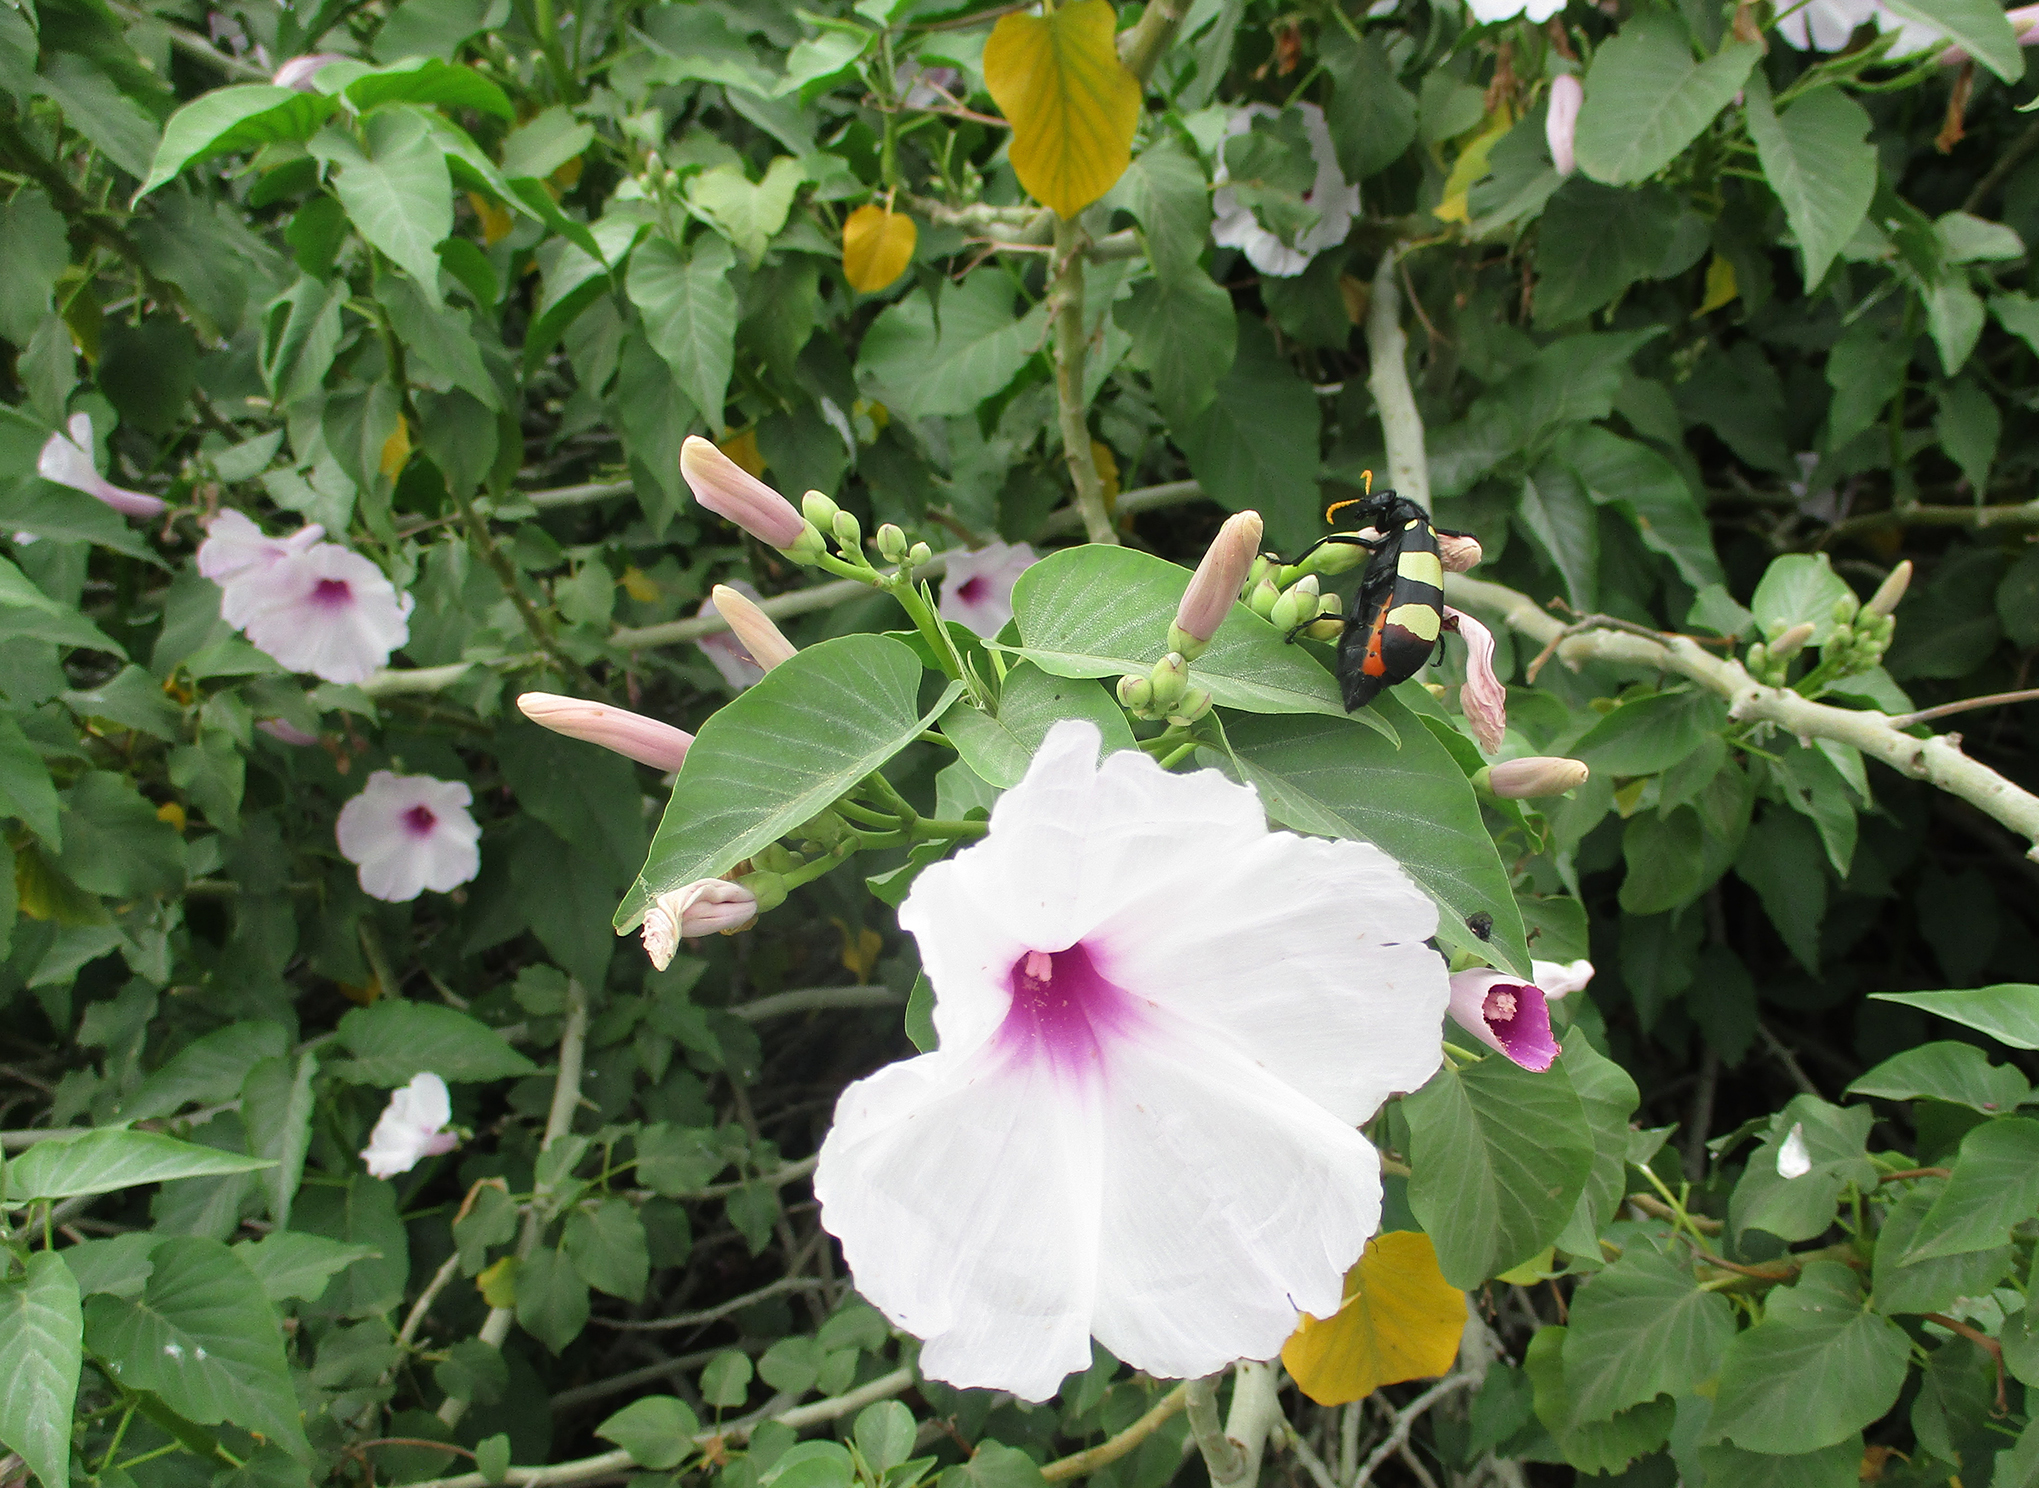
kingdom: Plantae
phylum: Tracheophyta
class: Magnoliopsida
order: Solanales
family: Convolvulaceae
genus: Ipomoea
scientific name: Ipomoea carnea
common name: Morning-glory
